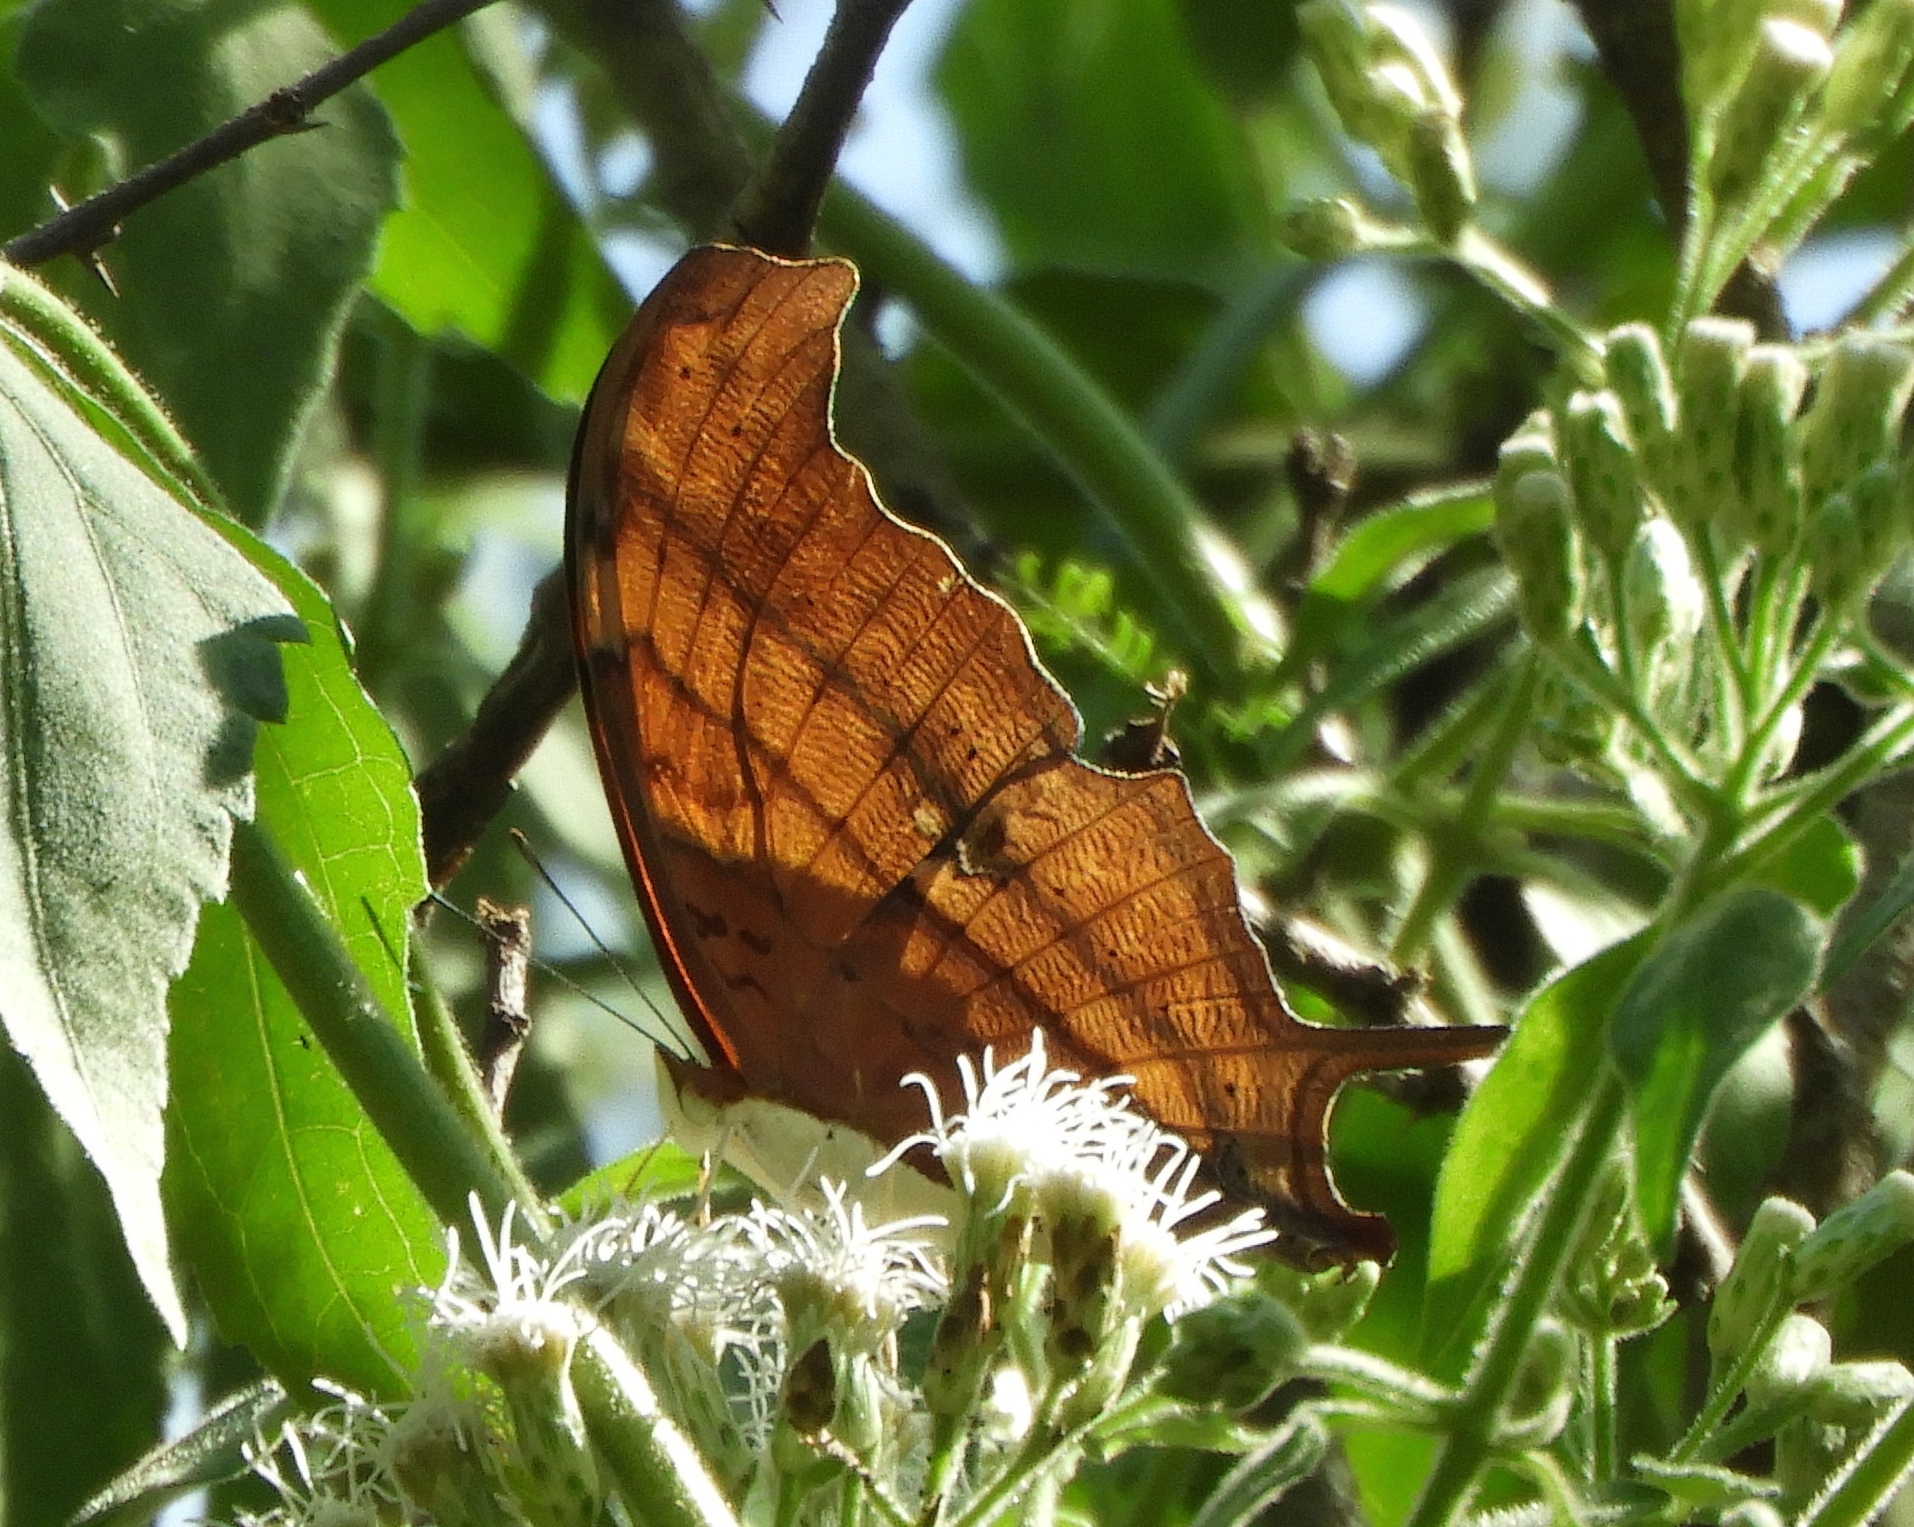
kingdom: Animalia
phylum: Arthropoda
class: Insecta
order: Lepidoptera
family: Nymphalidae
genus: Marpesia
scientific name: Marpesia petreus
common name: Red dagger wing
